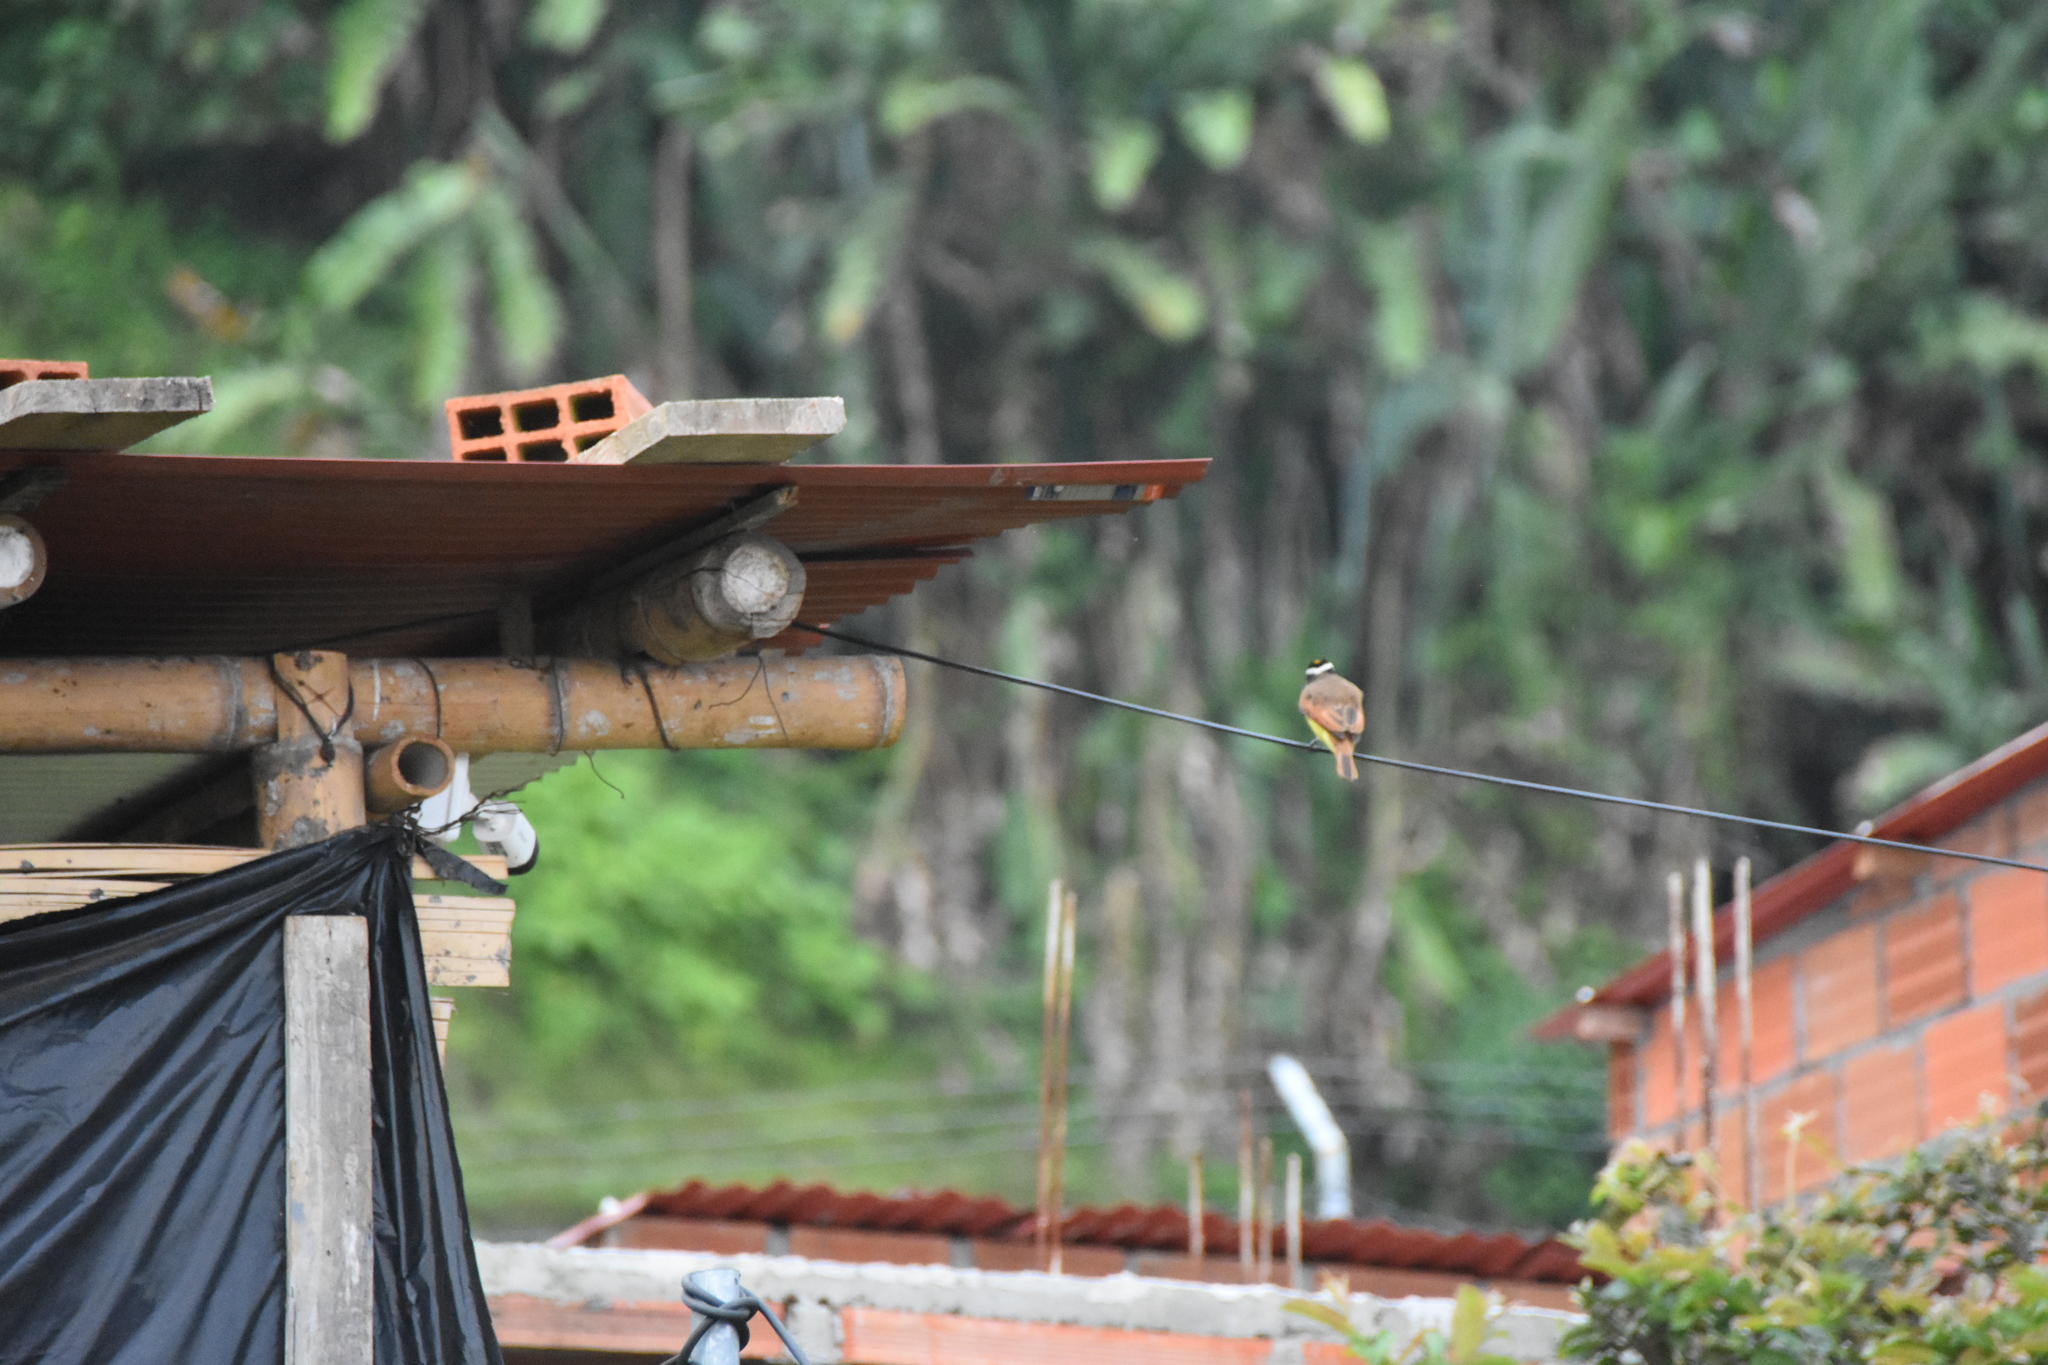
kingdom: Animalia
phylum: Chordata
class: Aves
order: Passeriformes
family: Tyrannidae
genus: Pitangus
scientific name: Pitangus sulphuratus
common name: Great kiskadee
